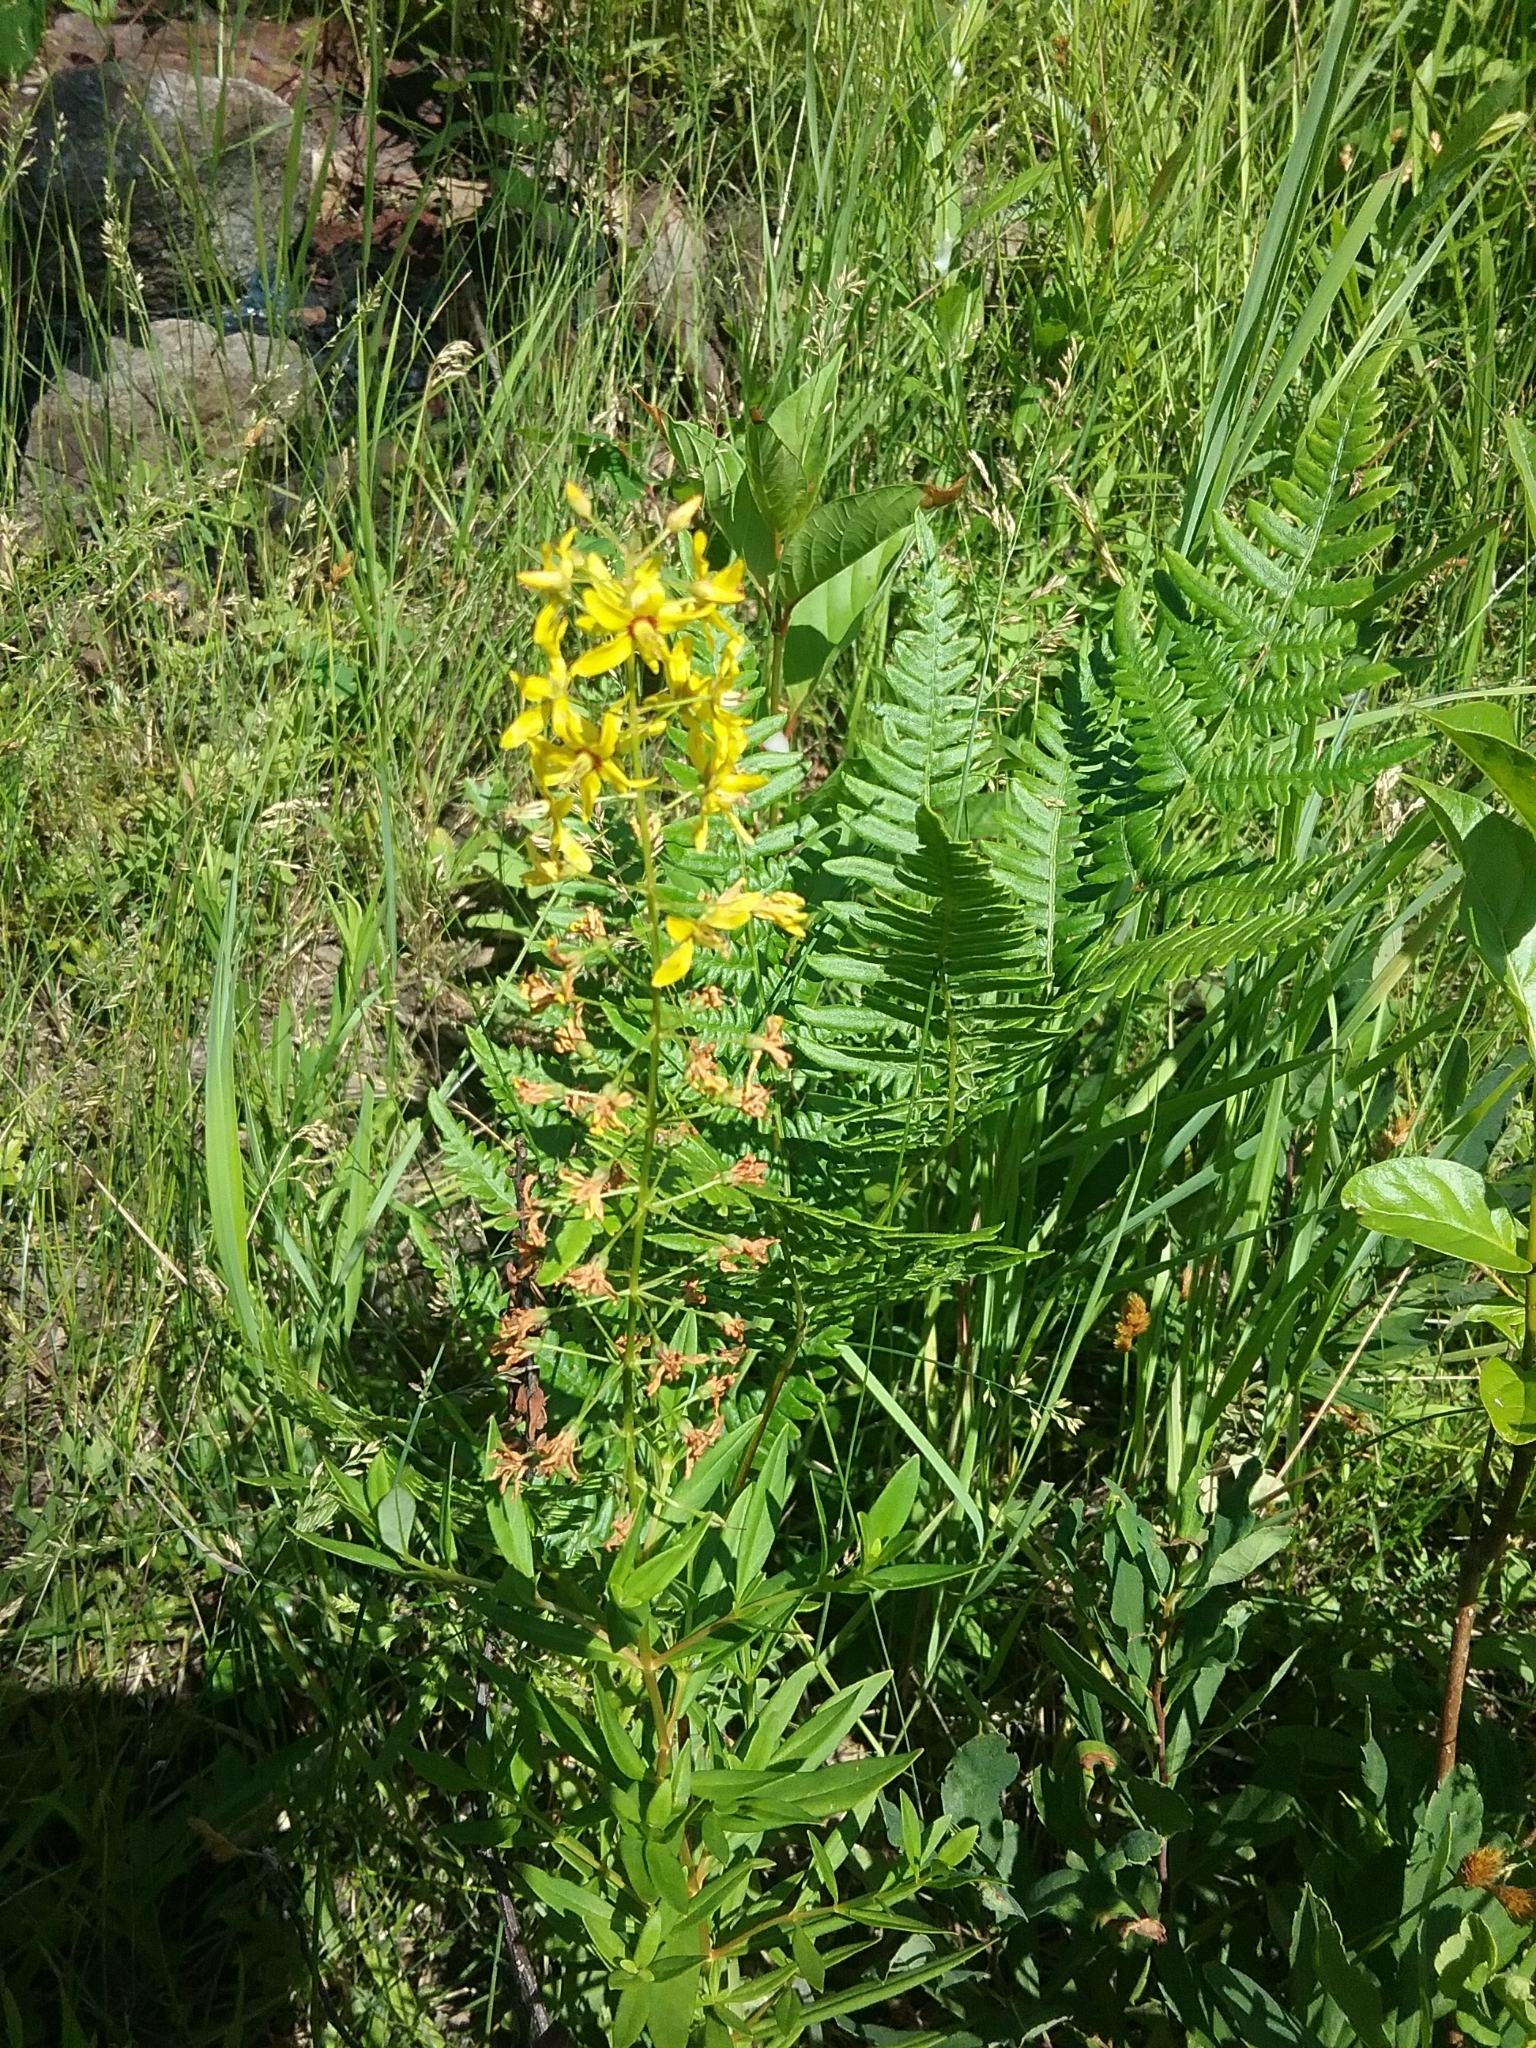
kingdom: Plantae
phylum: Tracheophyta
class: Magnoliopsida
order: Ericales
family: Primulaceae
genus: Lysimachia
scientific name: Lysimachia terrestris
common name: Lake loosestrife
